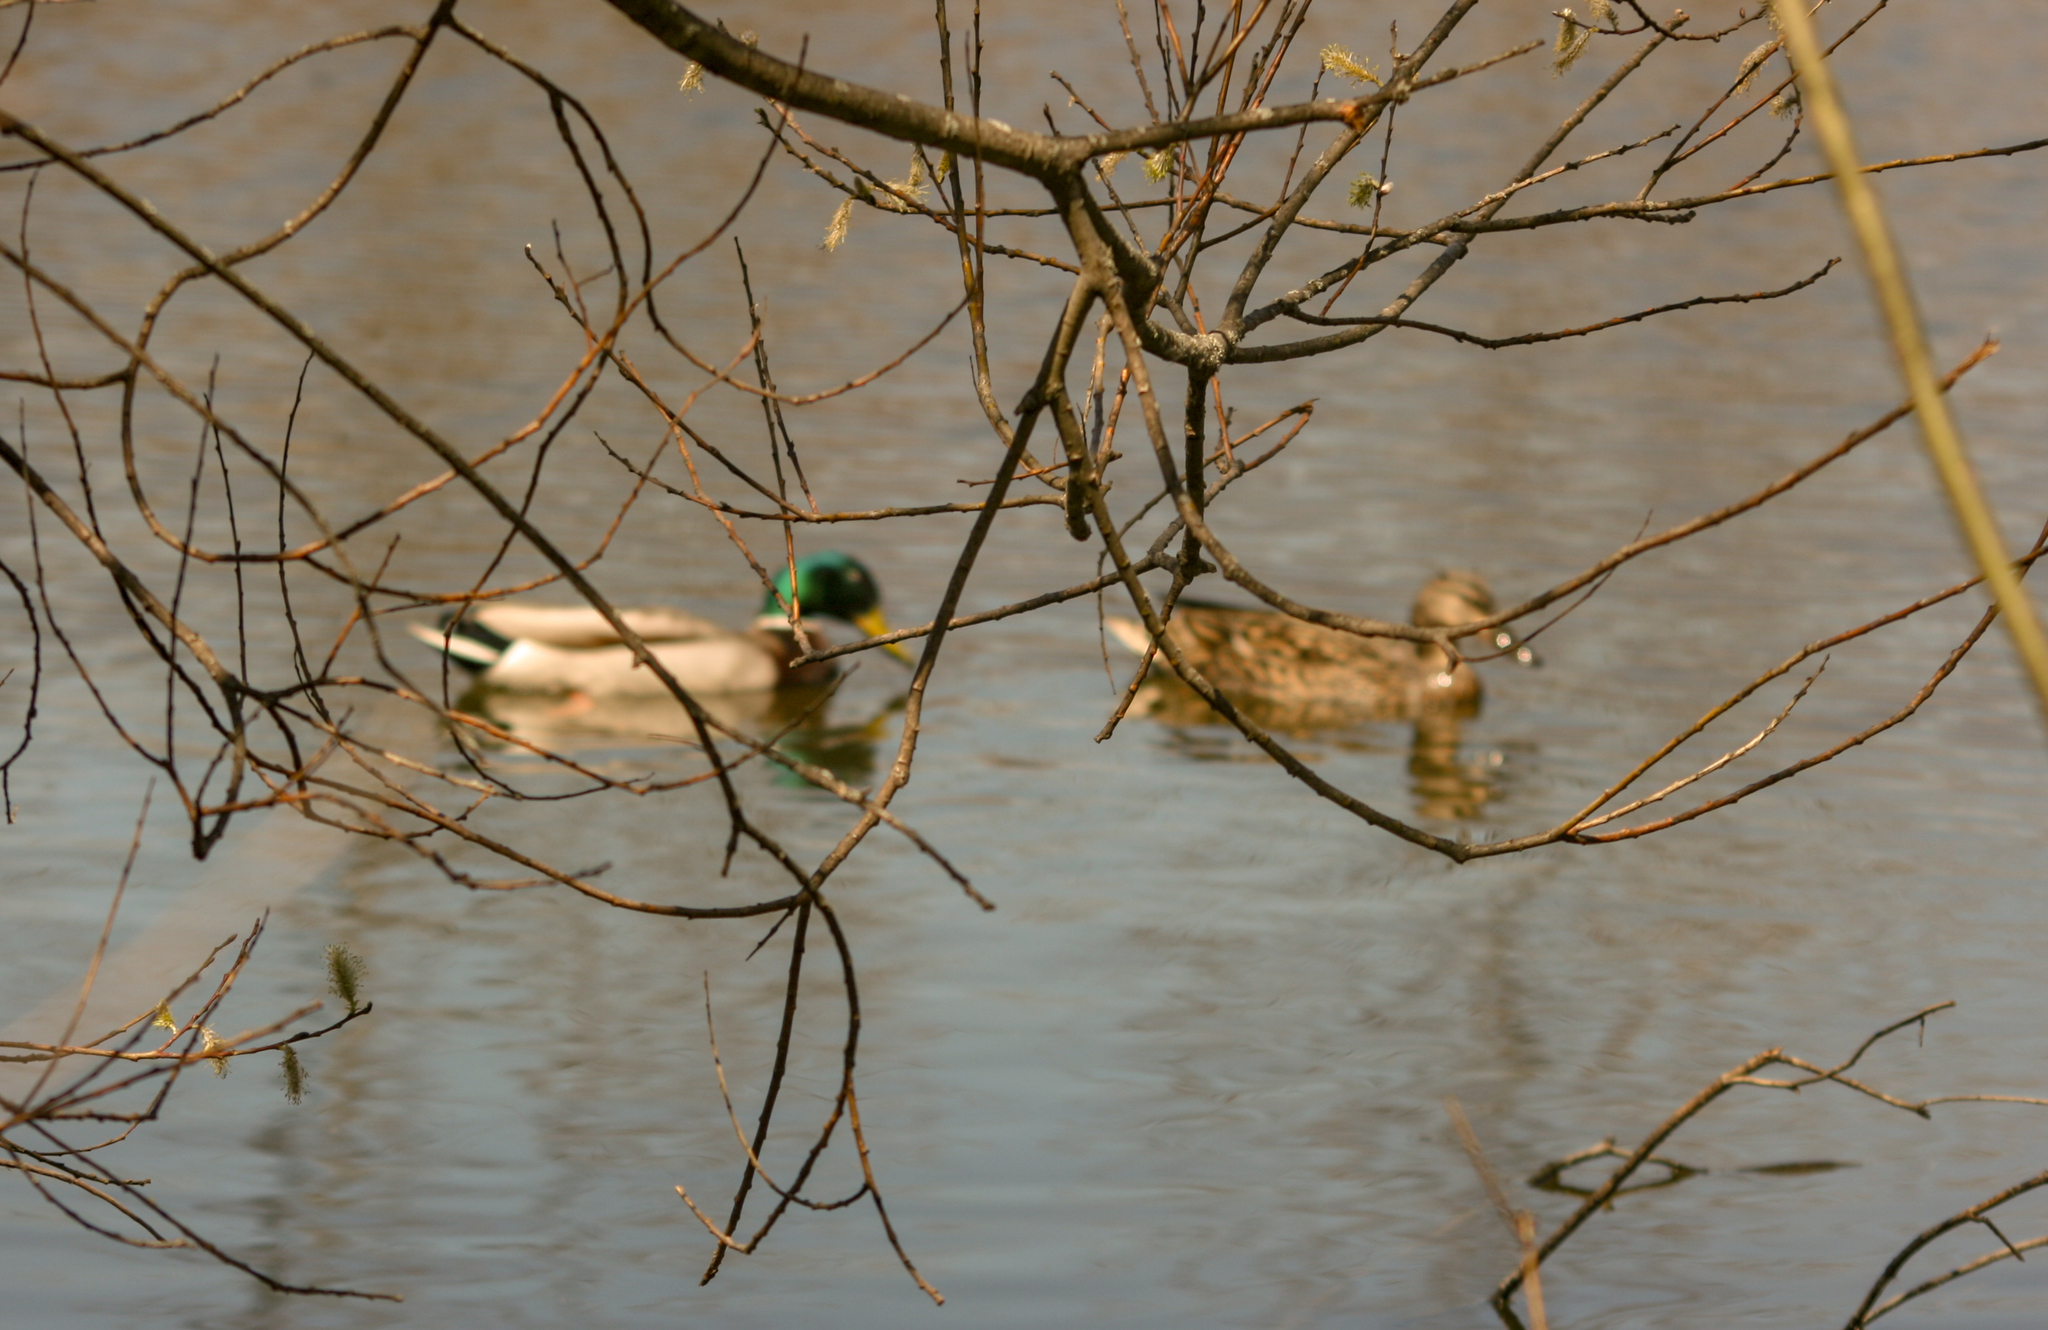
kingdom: Animalia
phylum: Chordata
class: Aves
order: Anseriformes
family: Anatidae
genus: Anas
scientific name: Anas platyrhynchos
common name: Mallard
